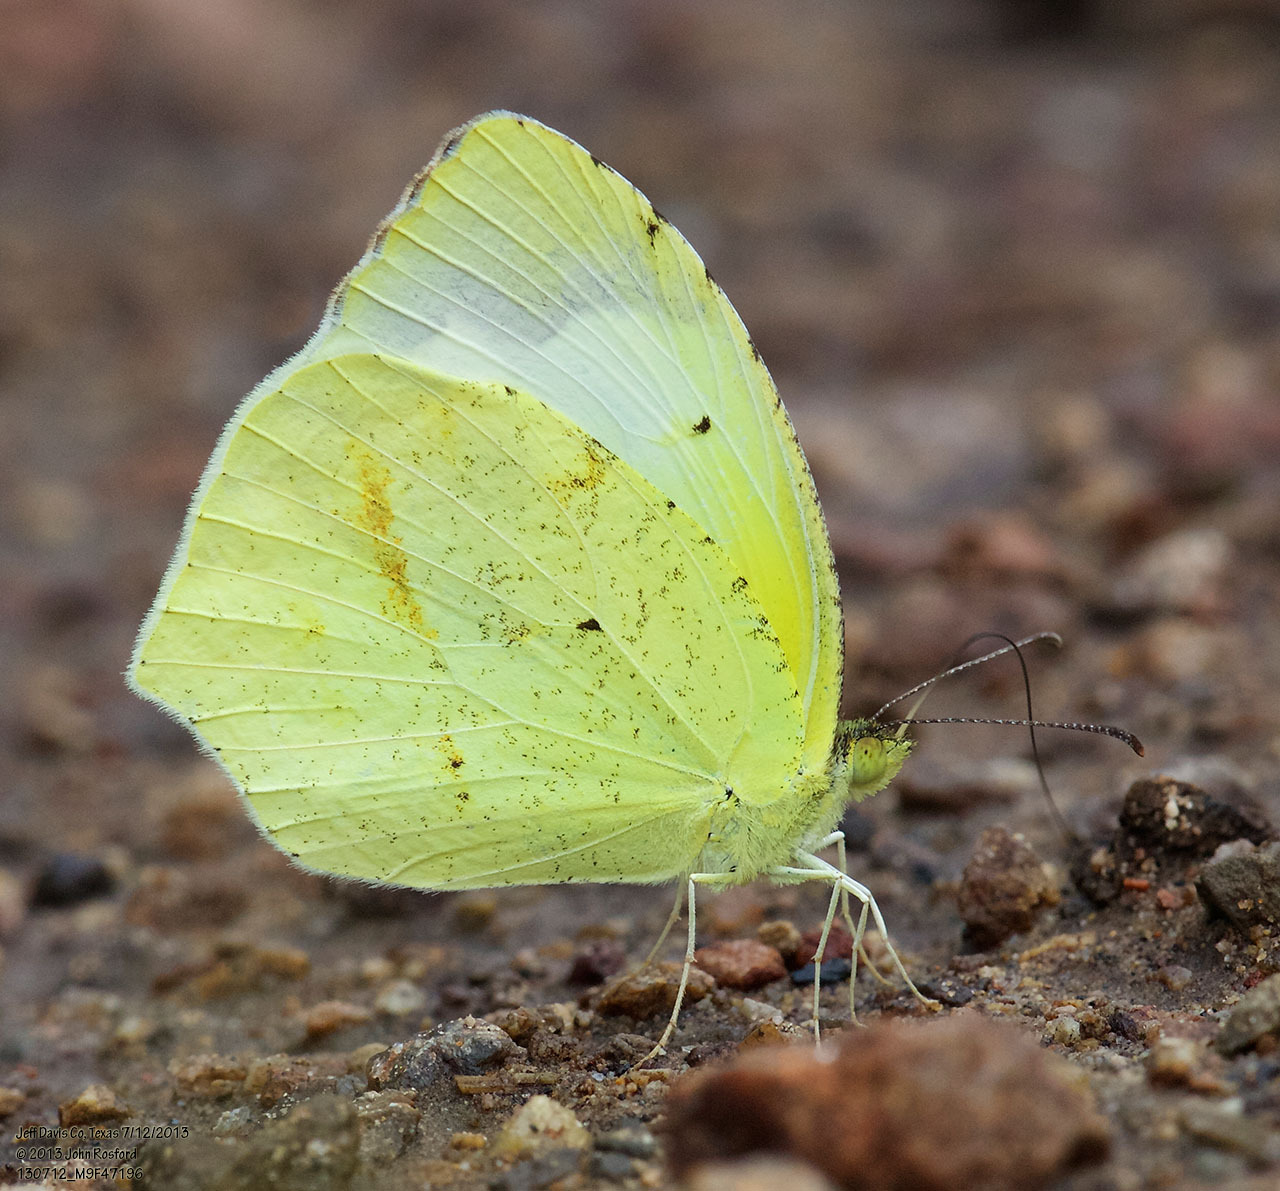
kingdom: Animalia
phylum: Arthropoda
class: Insecta
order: Lepidoptera
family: Pieridae
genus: Abaeis
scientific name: Abaeis mexicana
